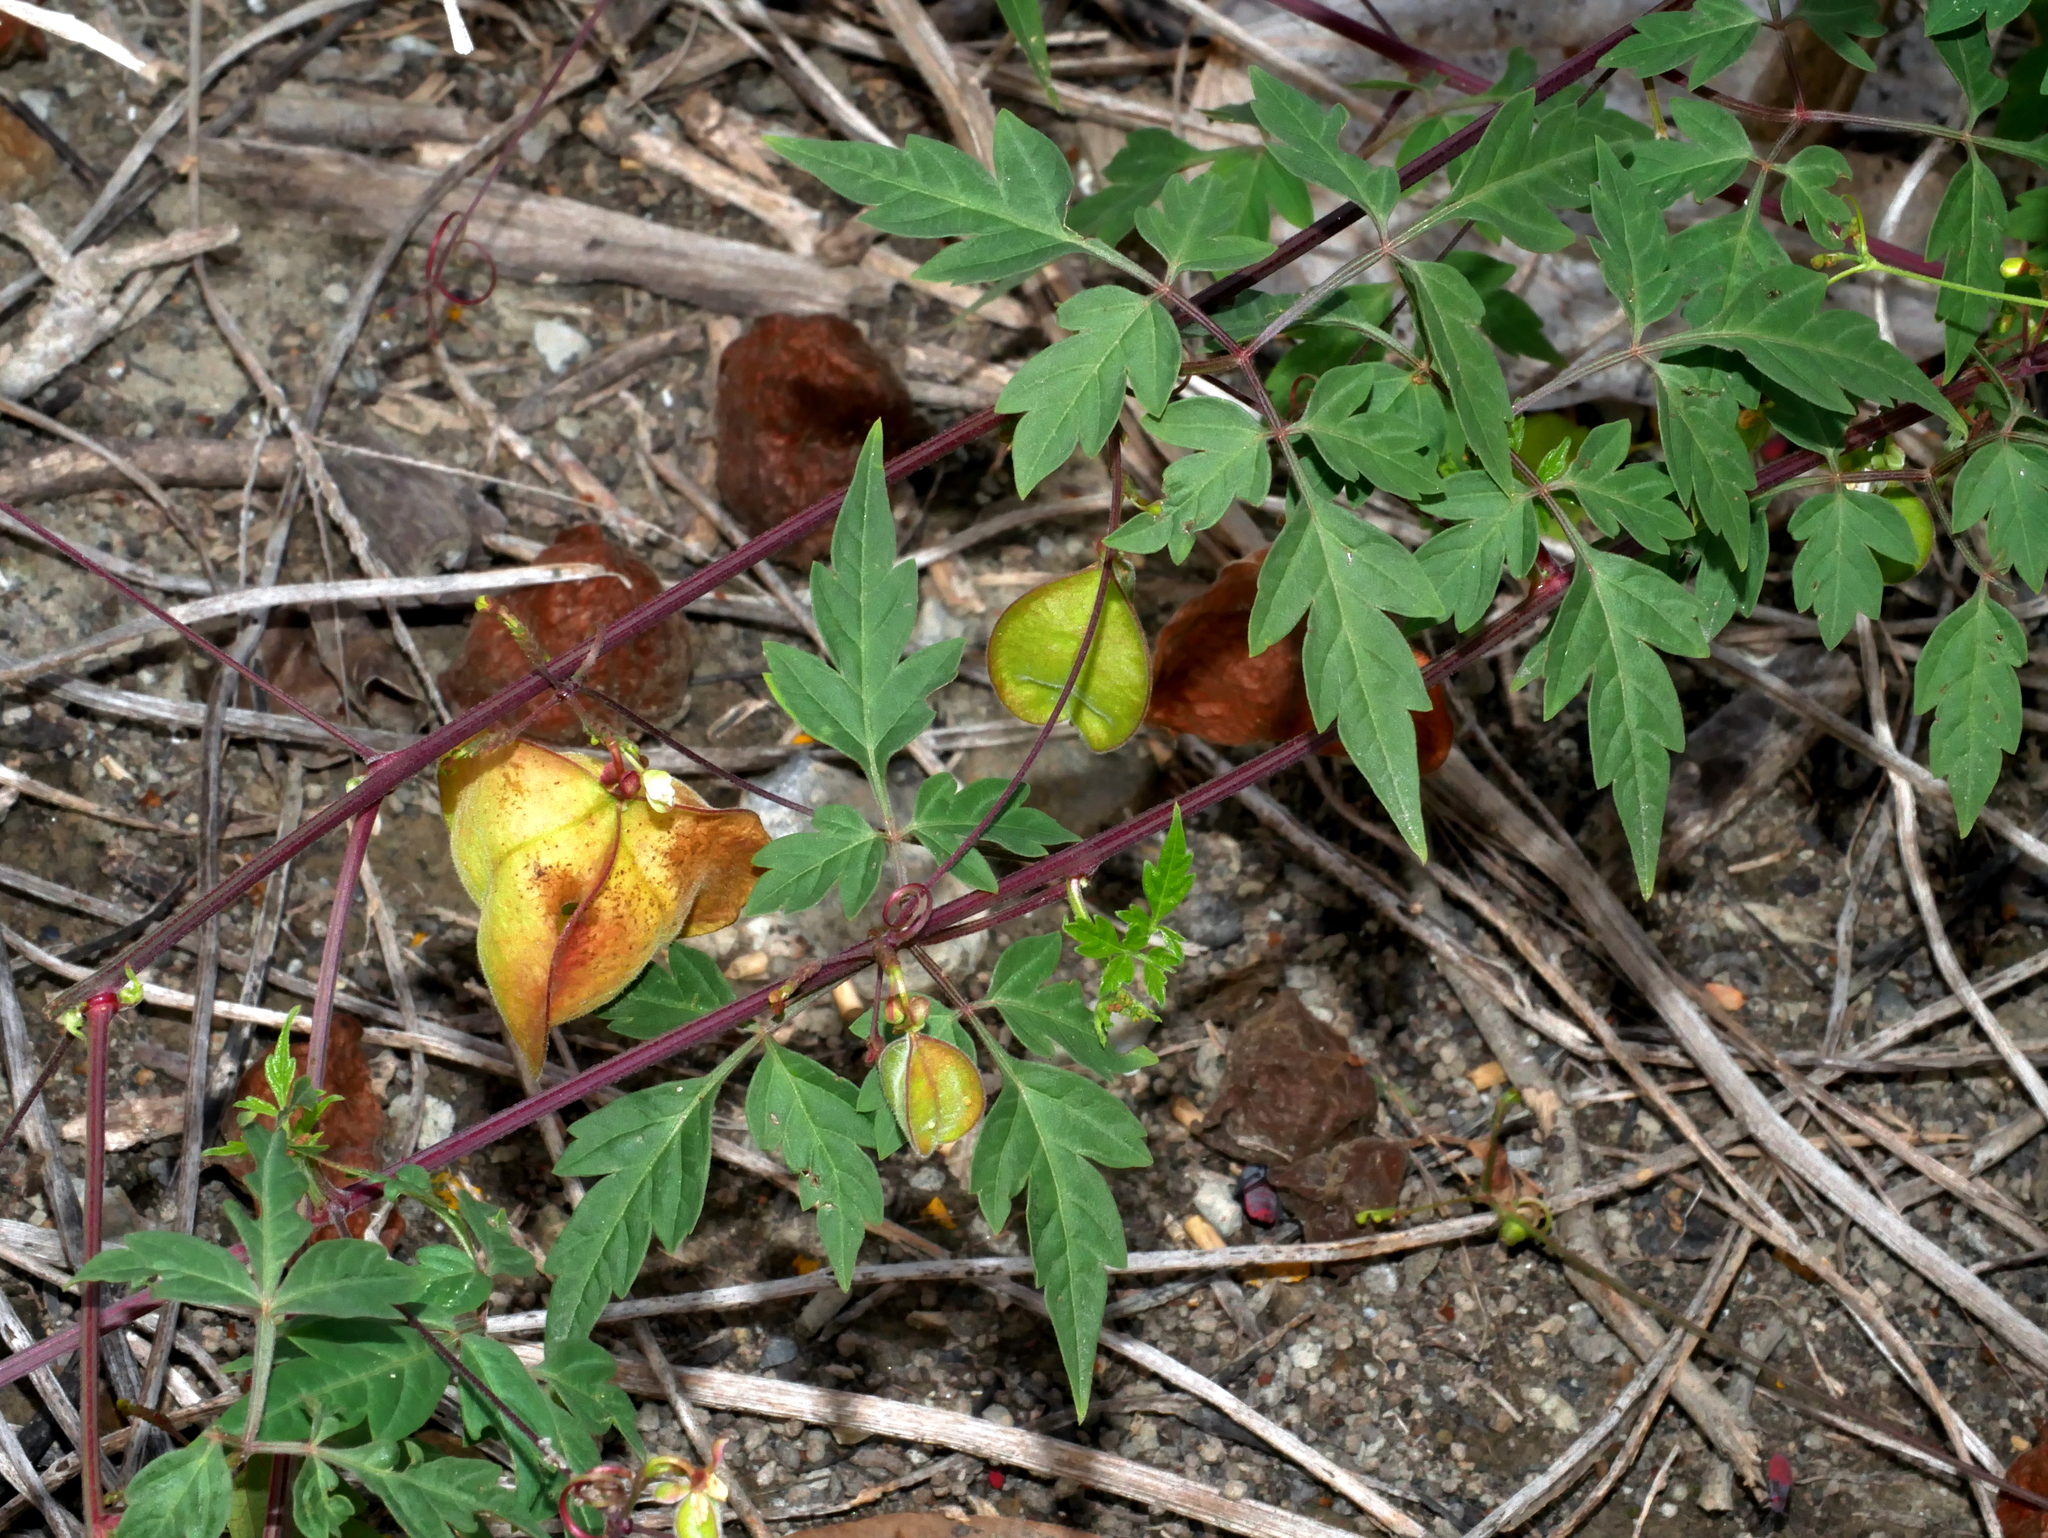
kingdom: Plantae
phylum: Tracheophyta
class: Magnoliopsida
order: Sapindales
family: Sapindaceae
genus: Cardiospermum
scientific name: Cardiospermum halicacabum
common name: Balloon vine
